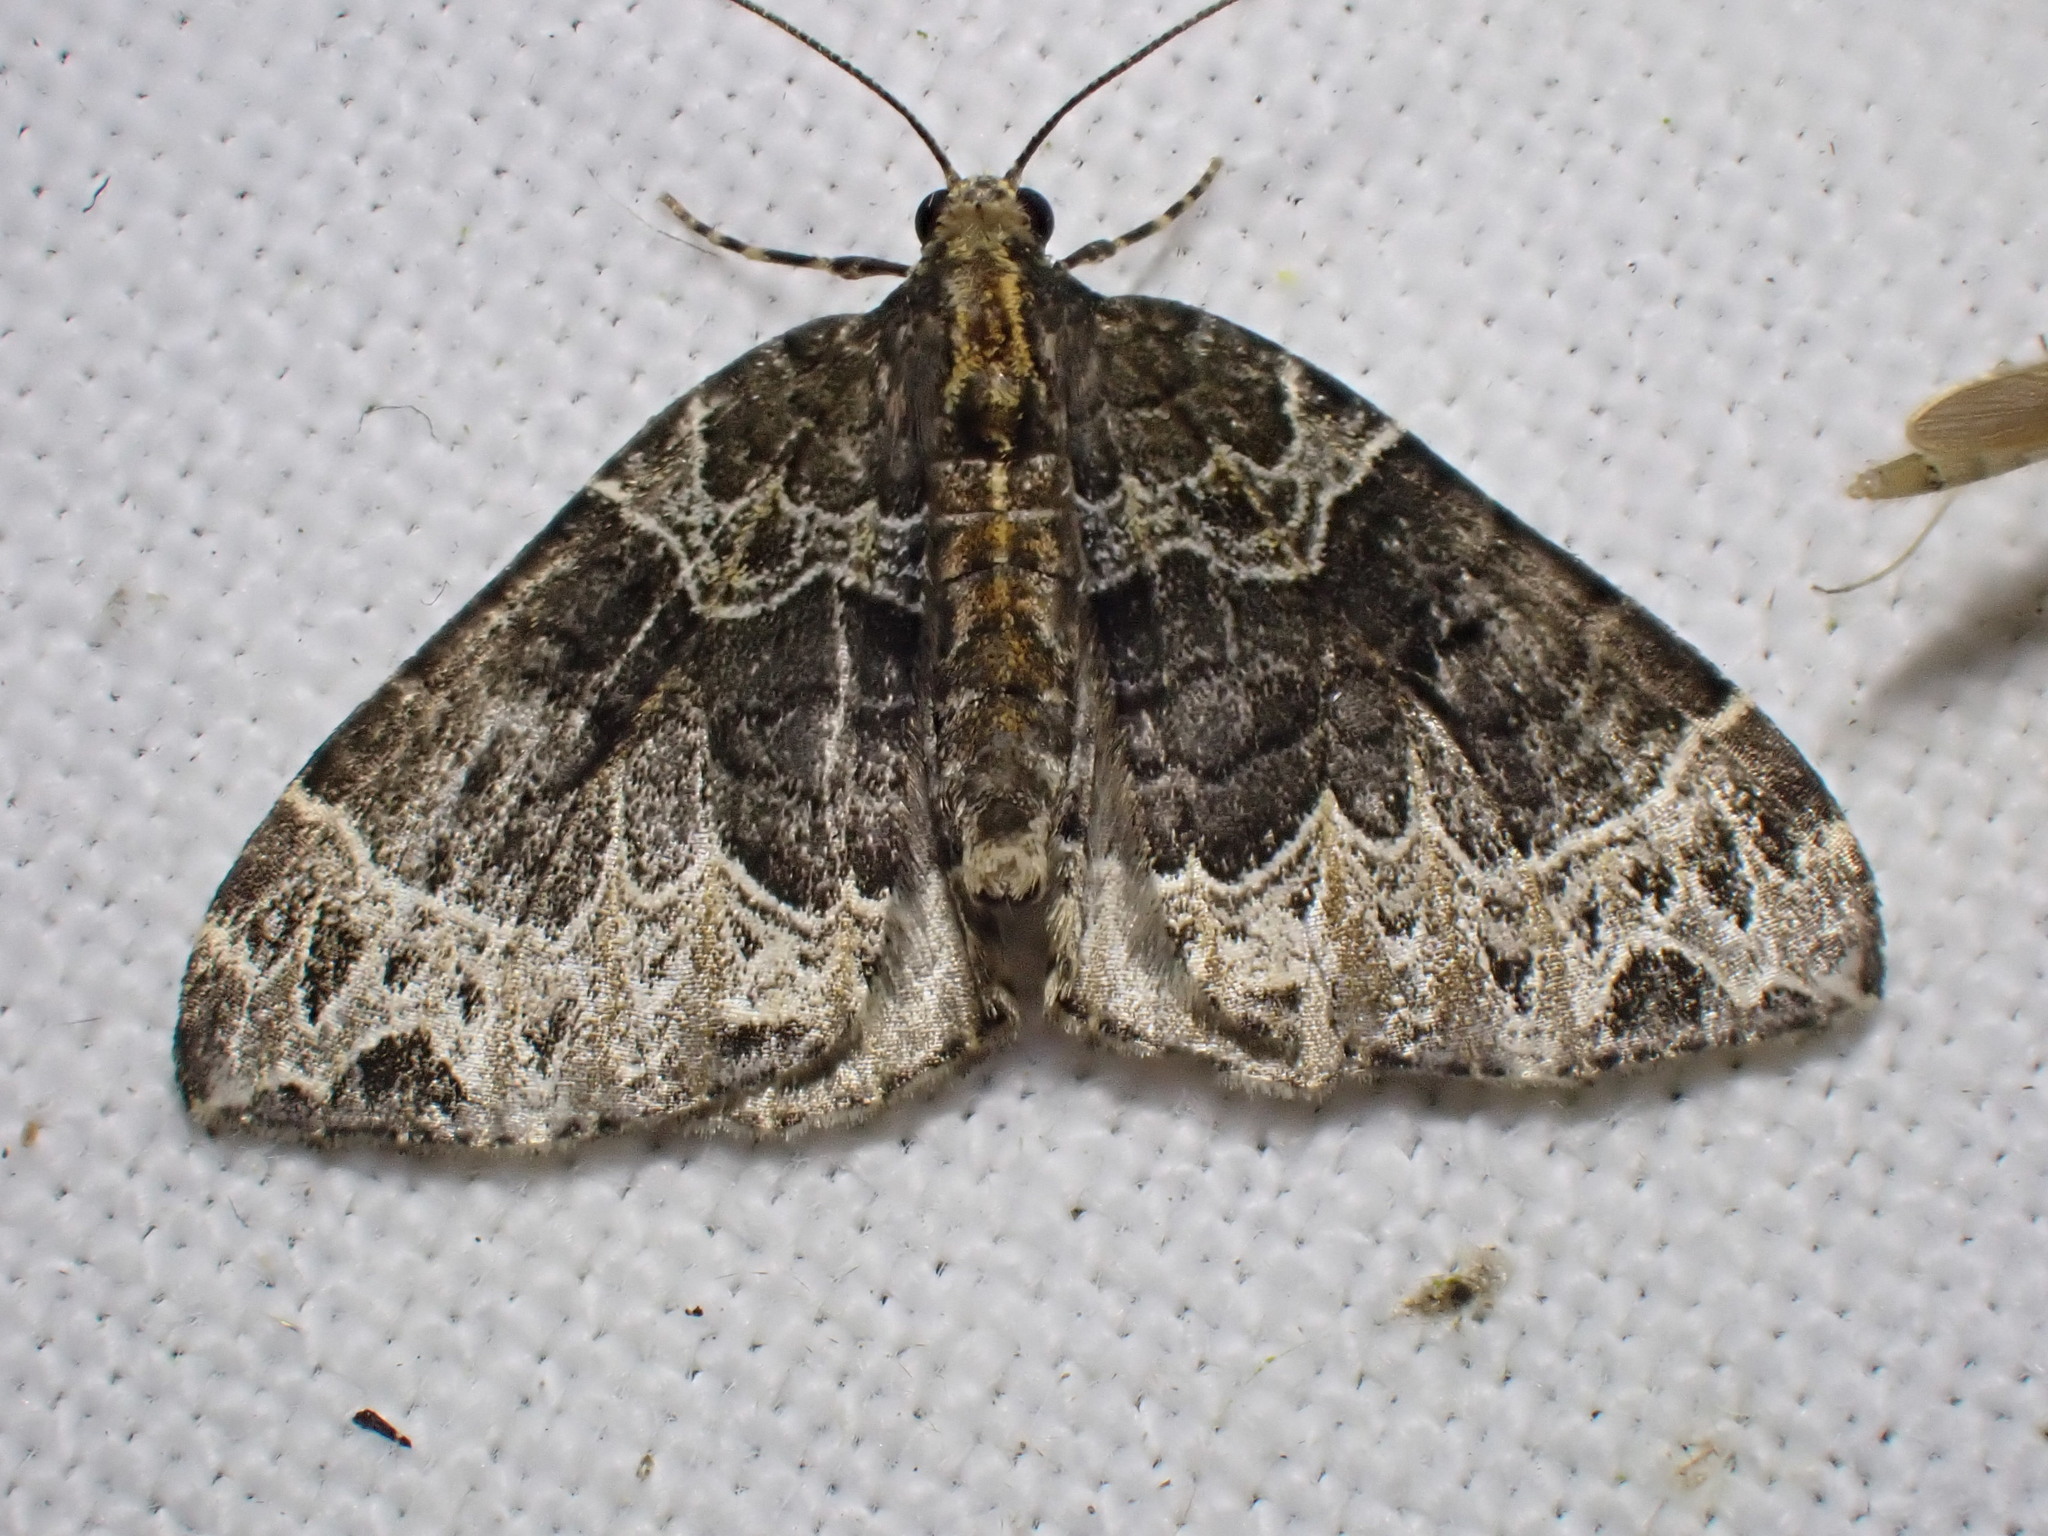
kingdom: Animalia
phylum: Arthropoda
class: Insecta
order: Lepidoptera
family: Geometridae
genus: Ecliptopera
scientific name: Ecliptopera silaceata
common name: Small phoenix
